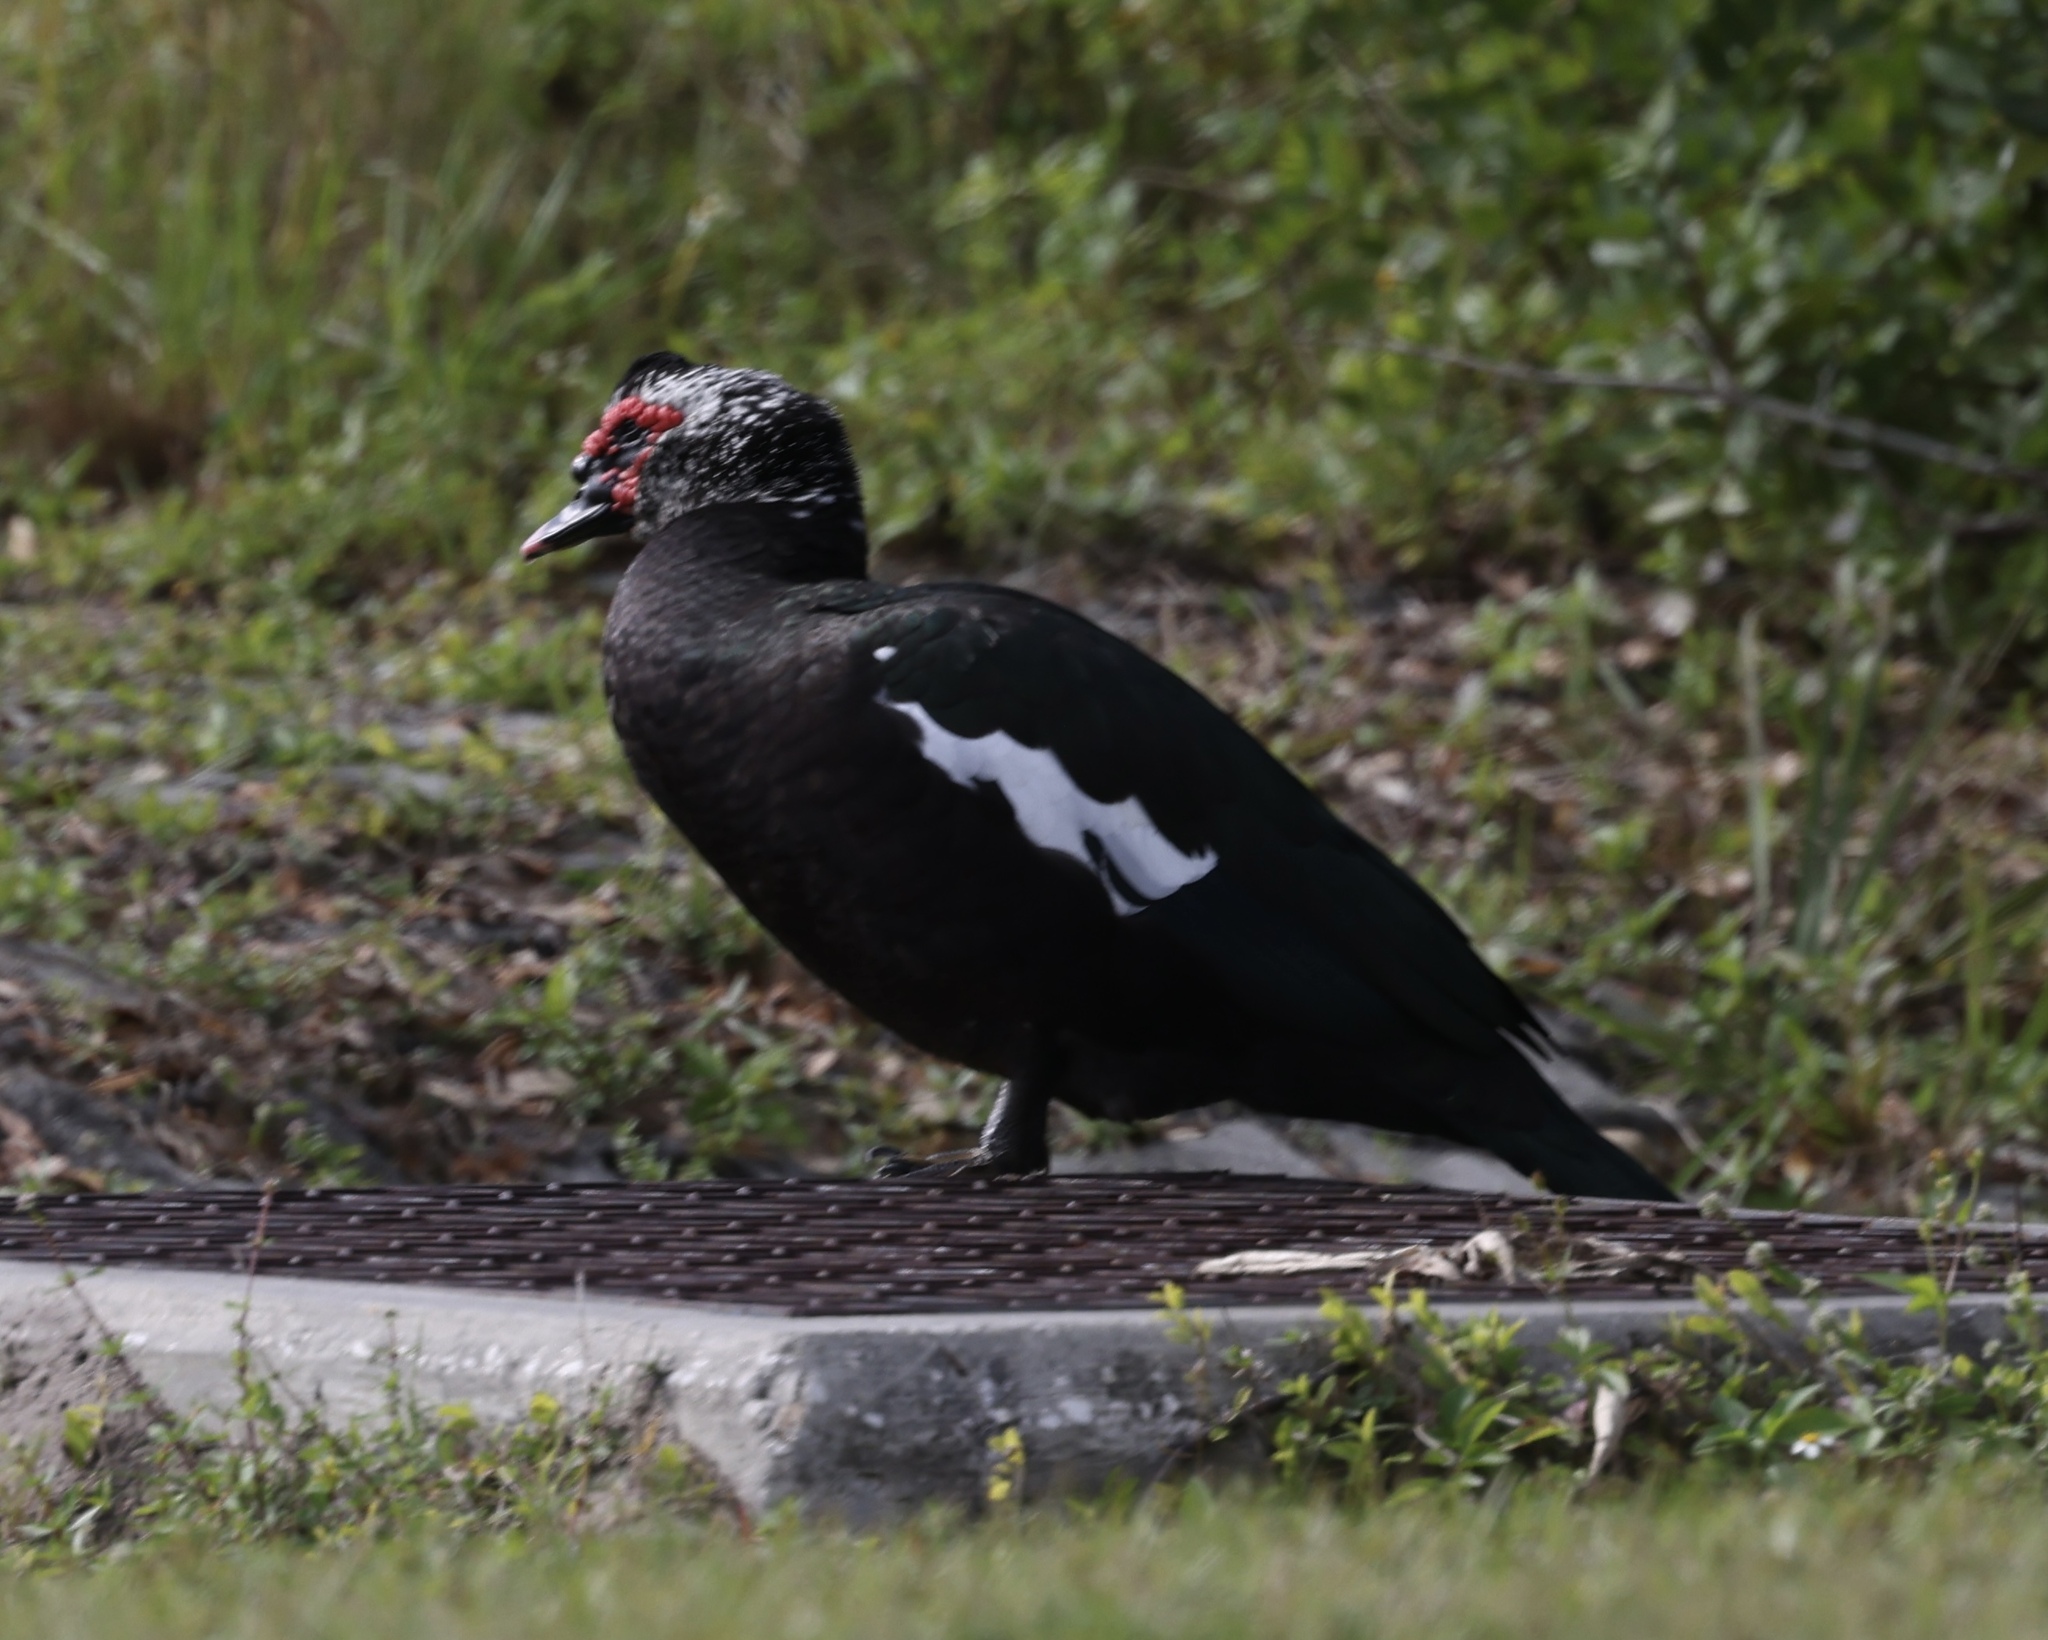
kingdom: Animalia
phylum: Chordata
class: Aves
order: Anseriformes
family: Anatidae
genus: Cairina
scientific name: Cairina moschata
